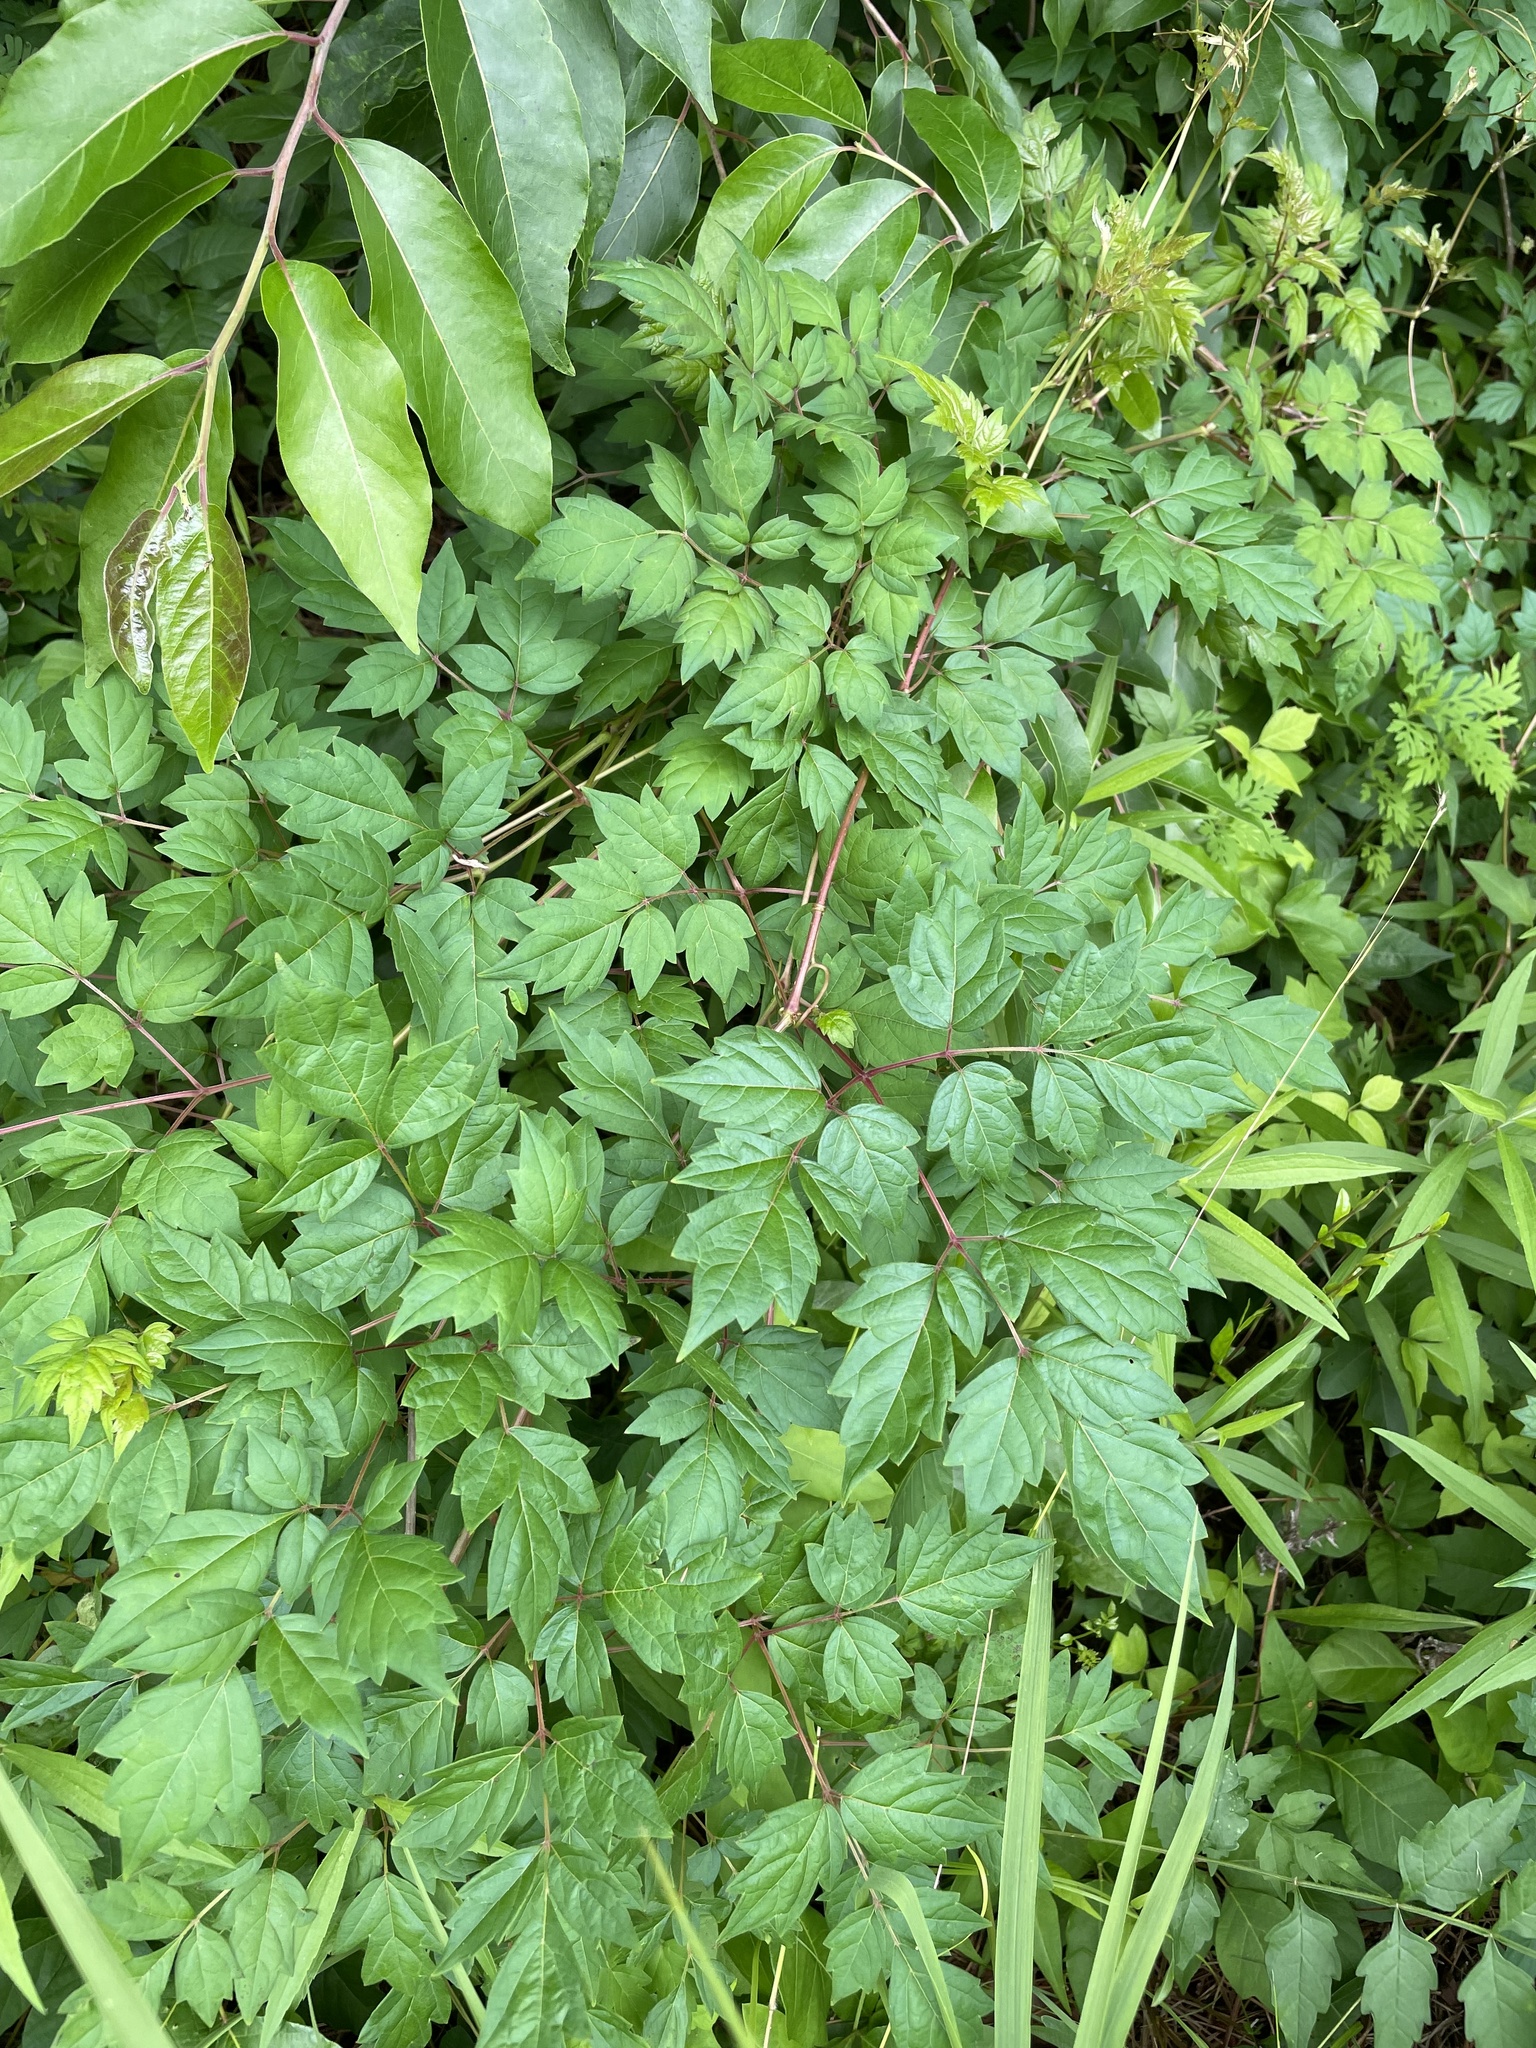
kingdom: Plantae
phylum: Tracheophyta
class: Magnoliopsida
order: Vitales
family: Vitaceae
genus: Nekemias
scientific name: Nekemias arborea
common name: Peppervine
